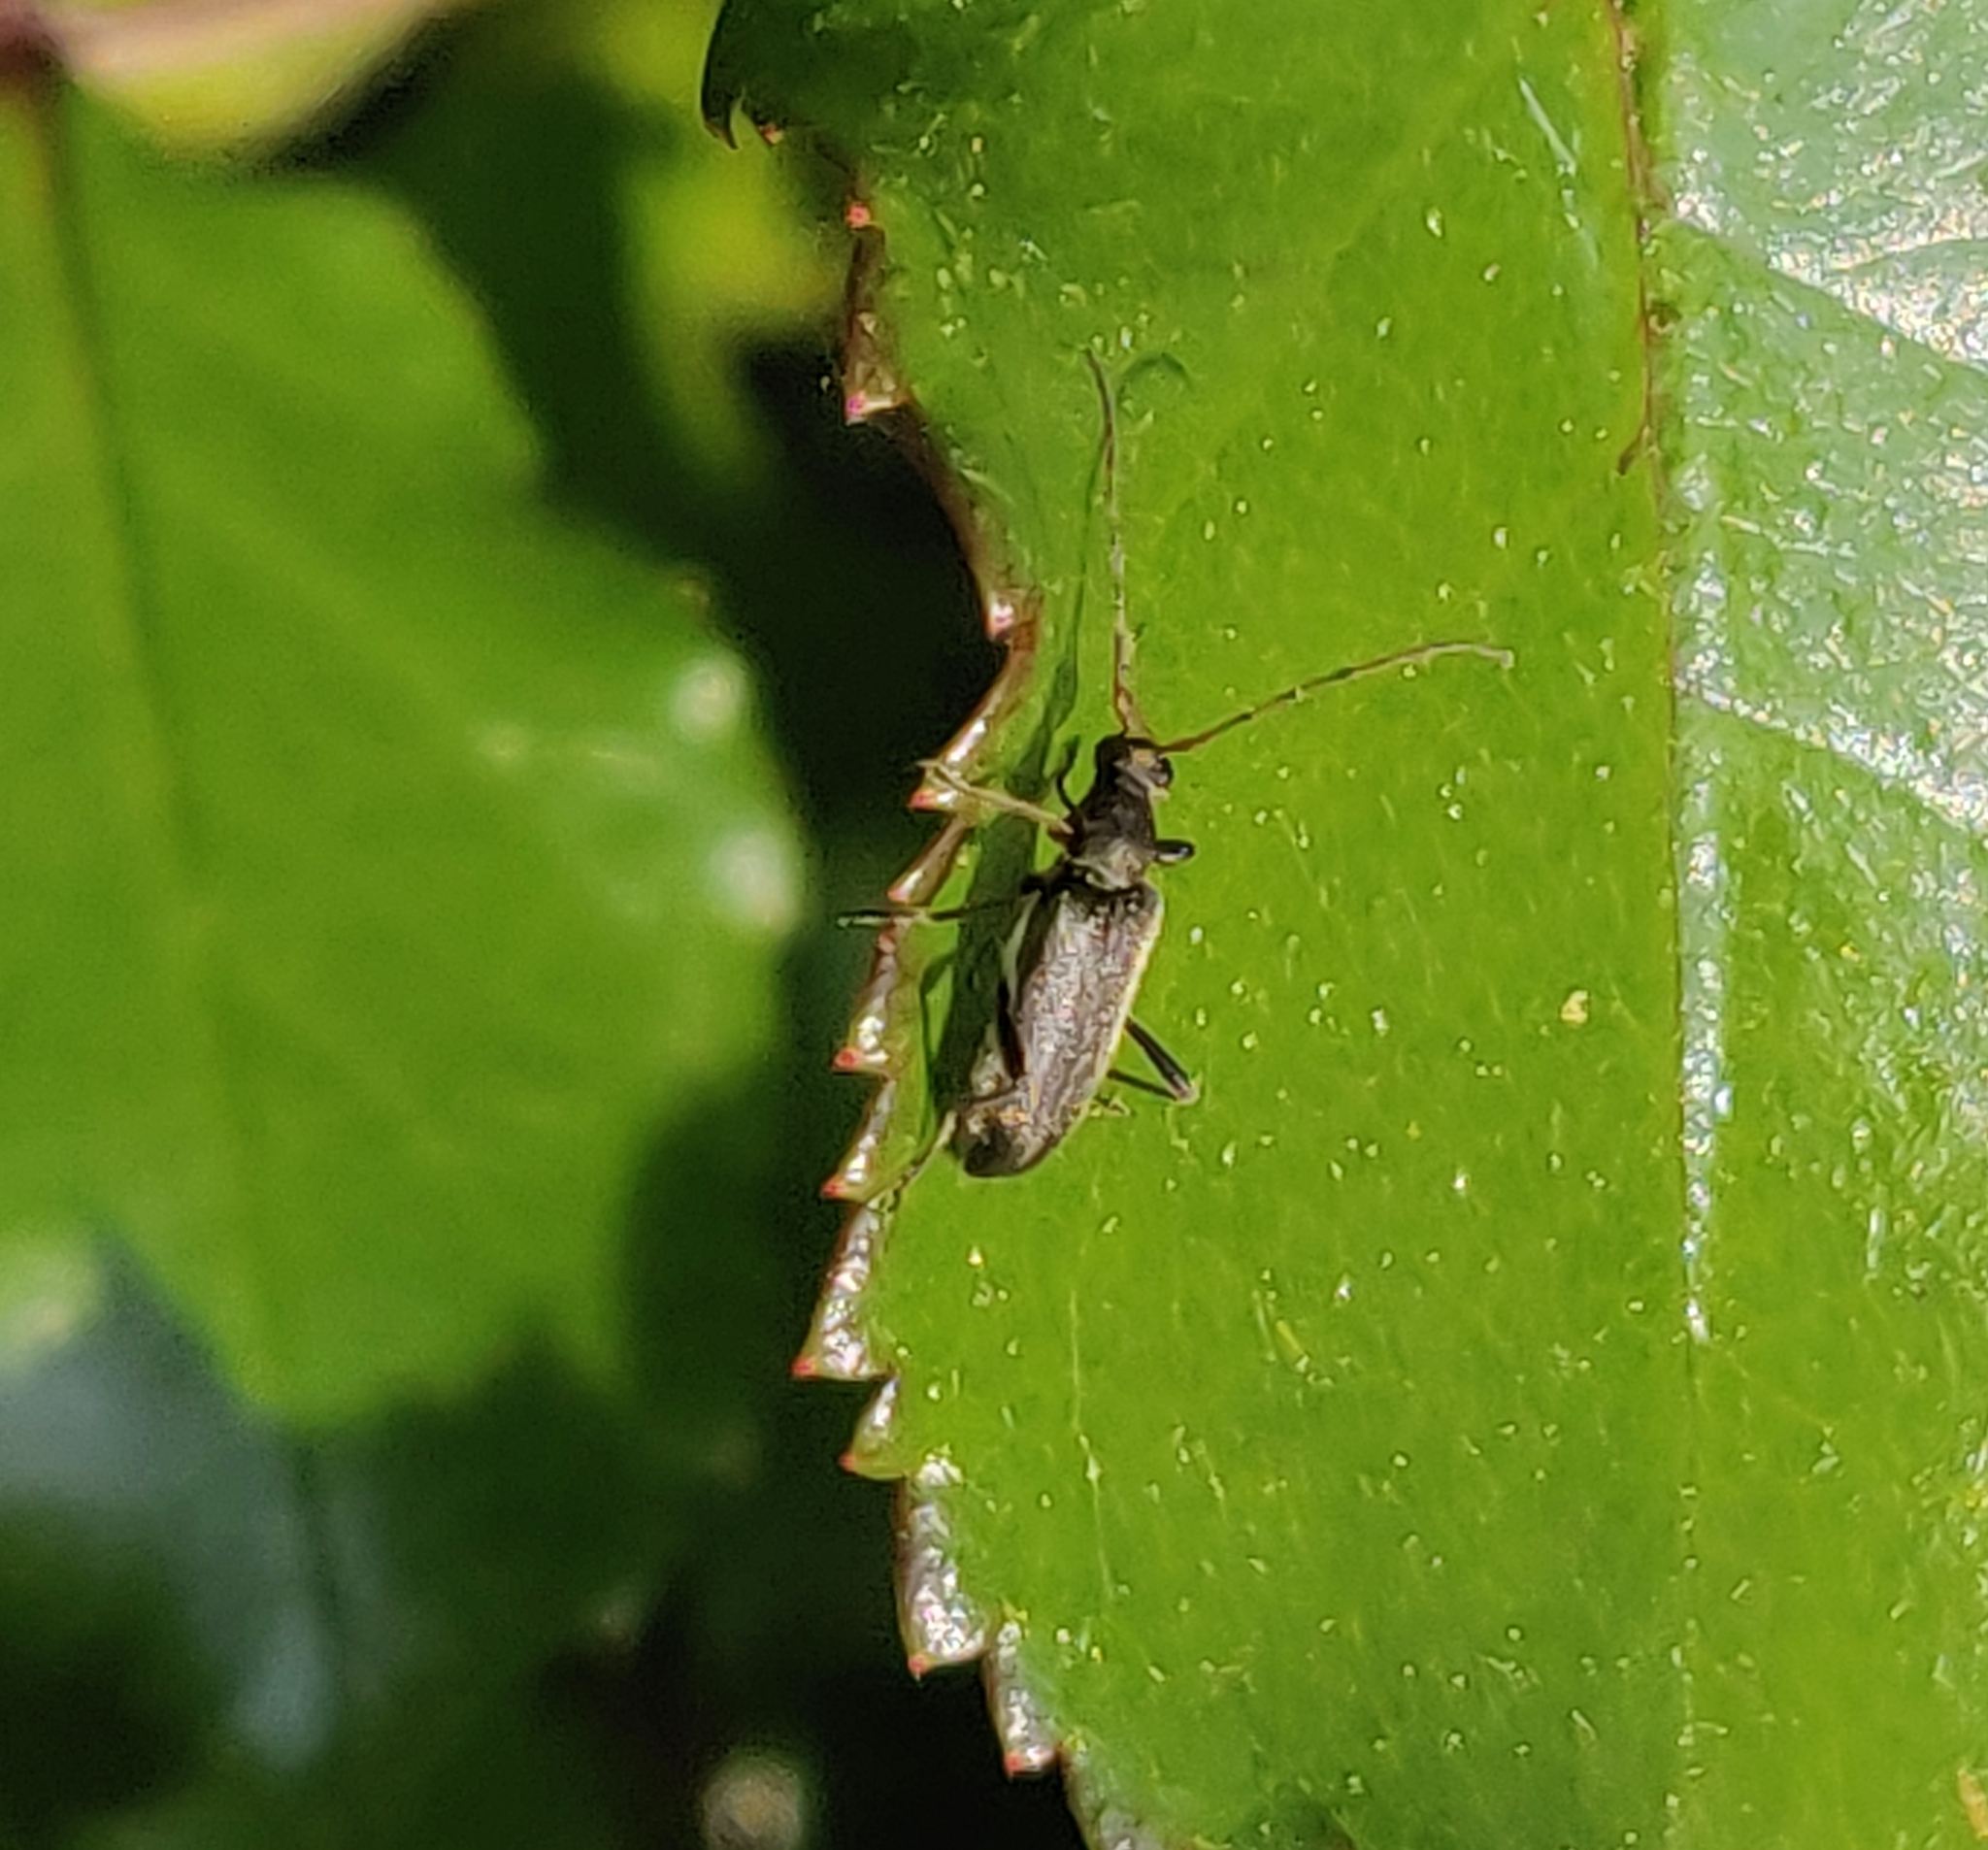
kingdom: Animalia
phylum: Arthropoda
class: Insecta
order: Coleoptera
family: Cerambycidae
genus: Grammoptera
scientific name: Grammoptera ruficornis
